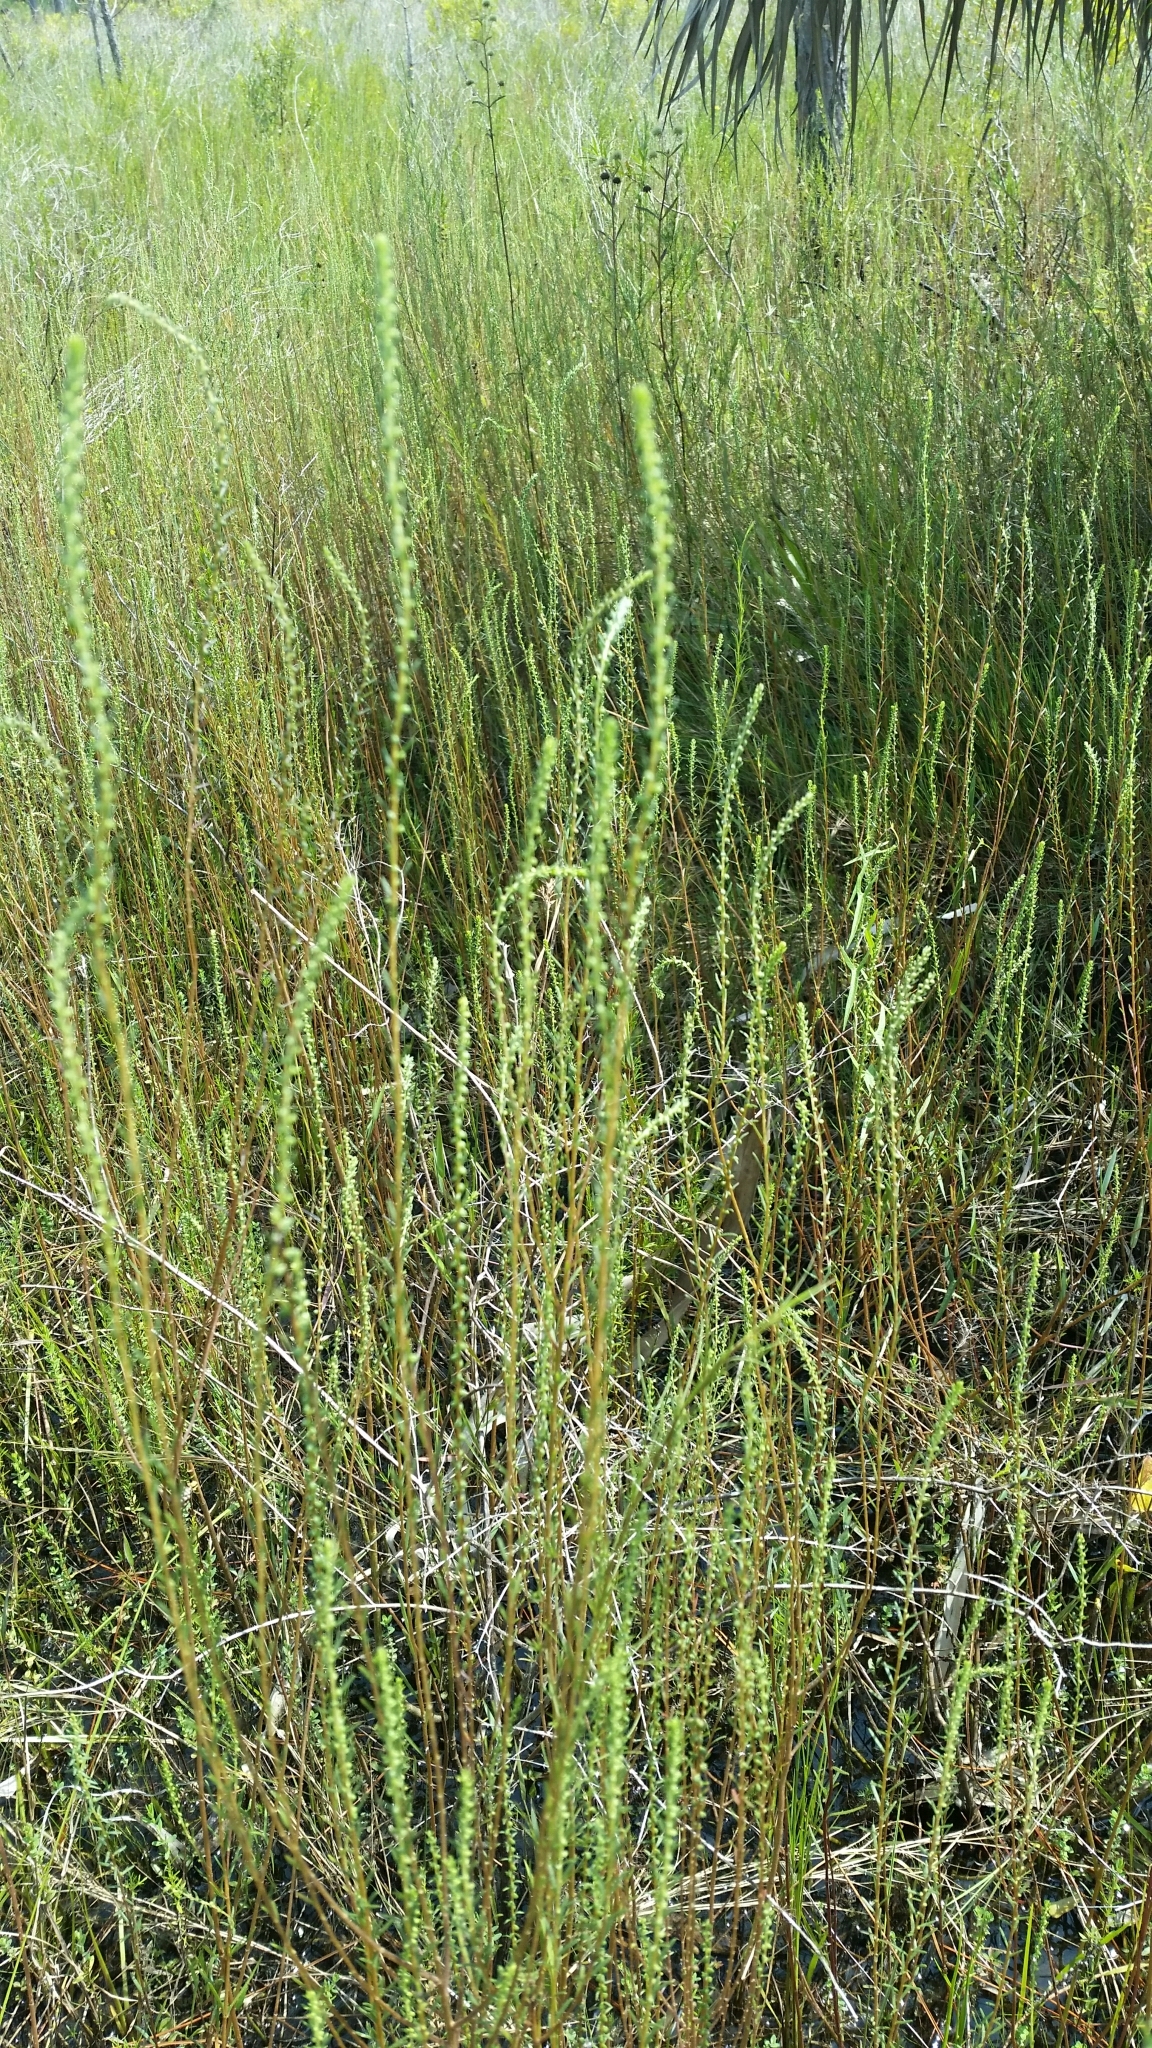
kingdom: Plantae
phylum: Tracheophyta
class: Magnoliopsida
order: Asterales
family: Asteraceae
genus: Iva
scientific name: Iva microcephala
